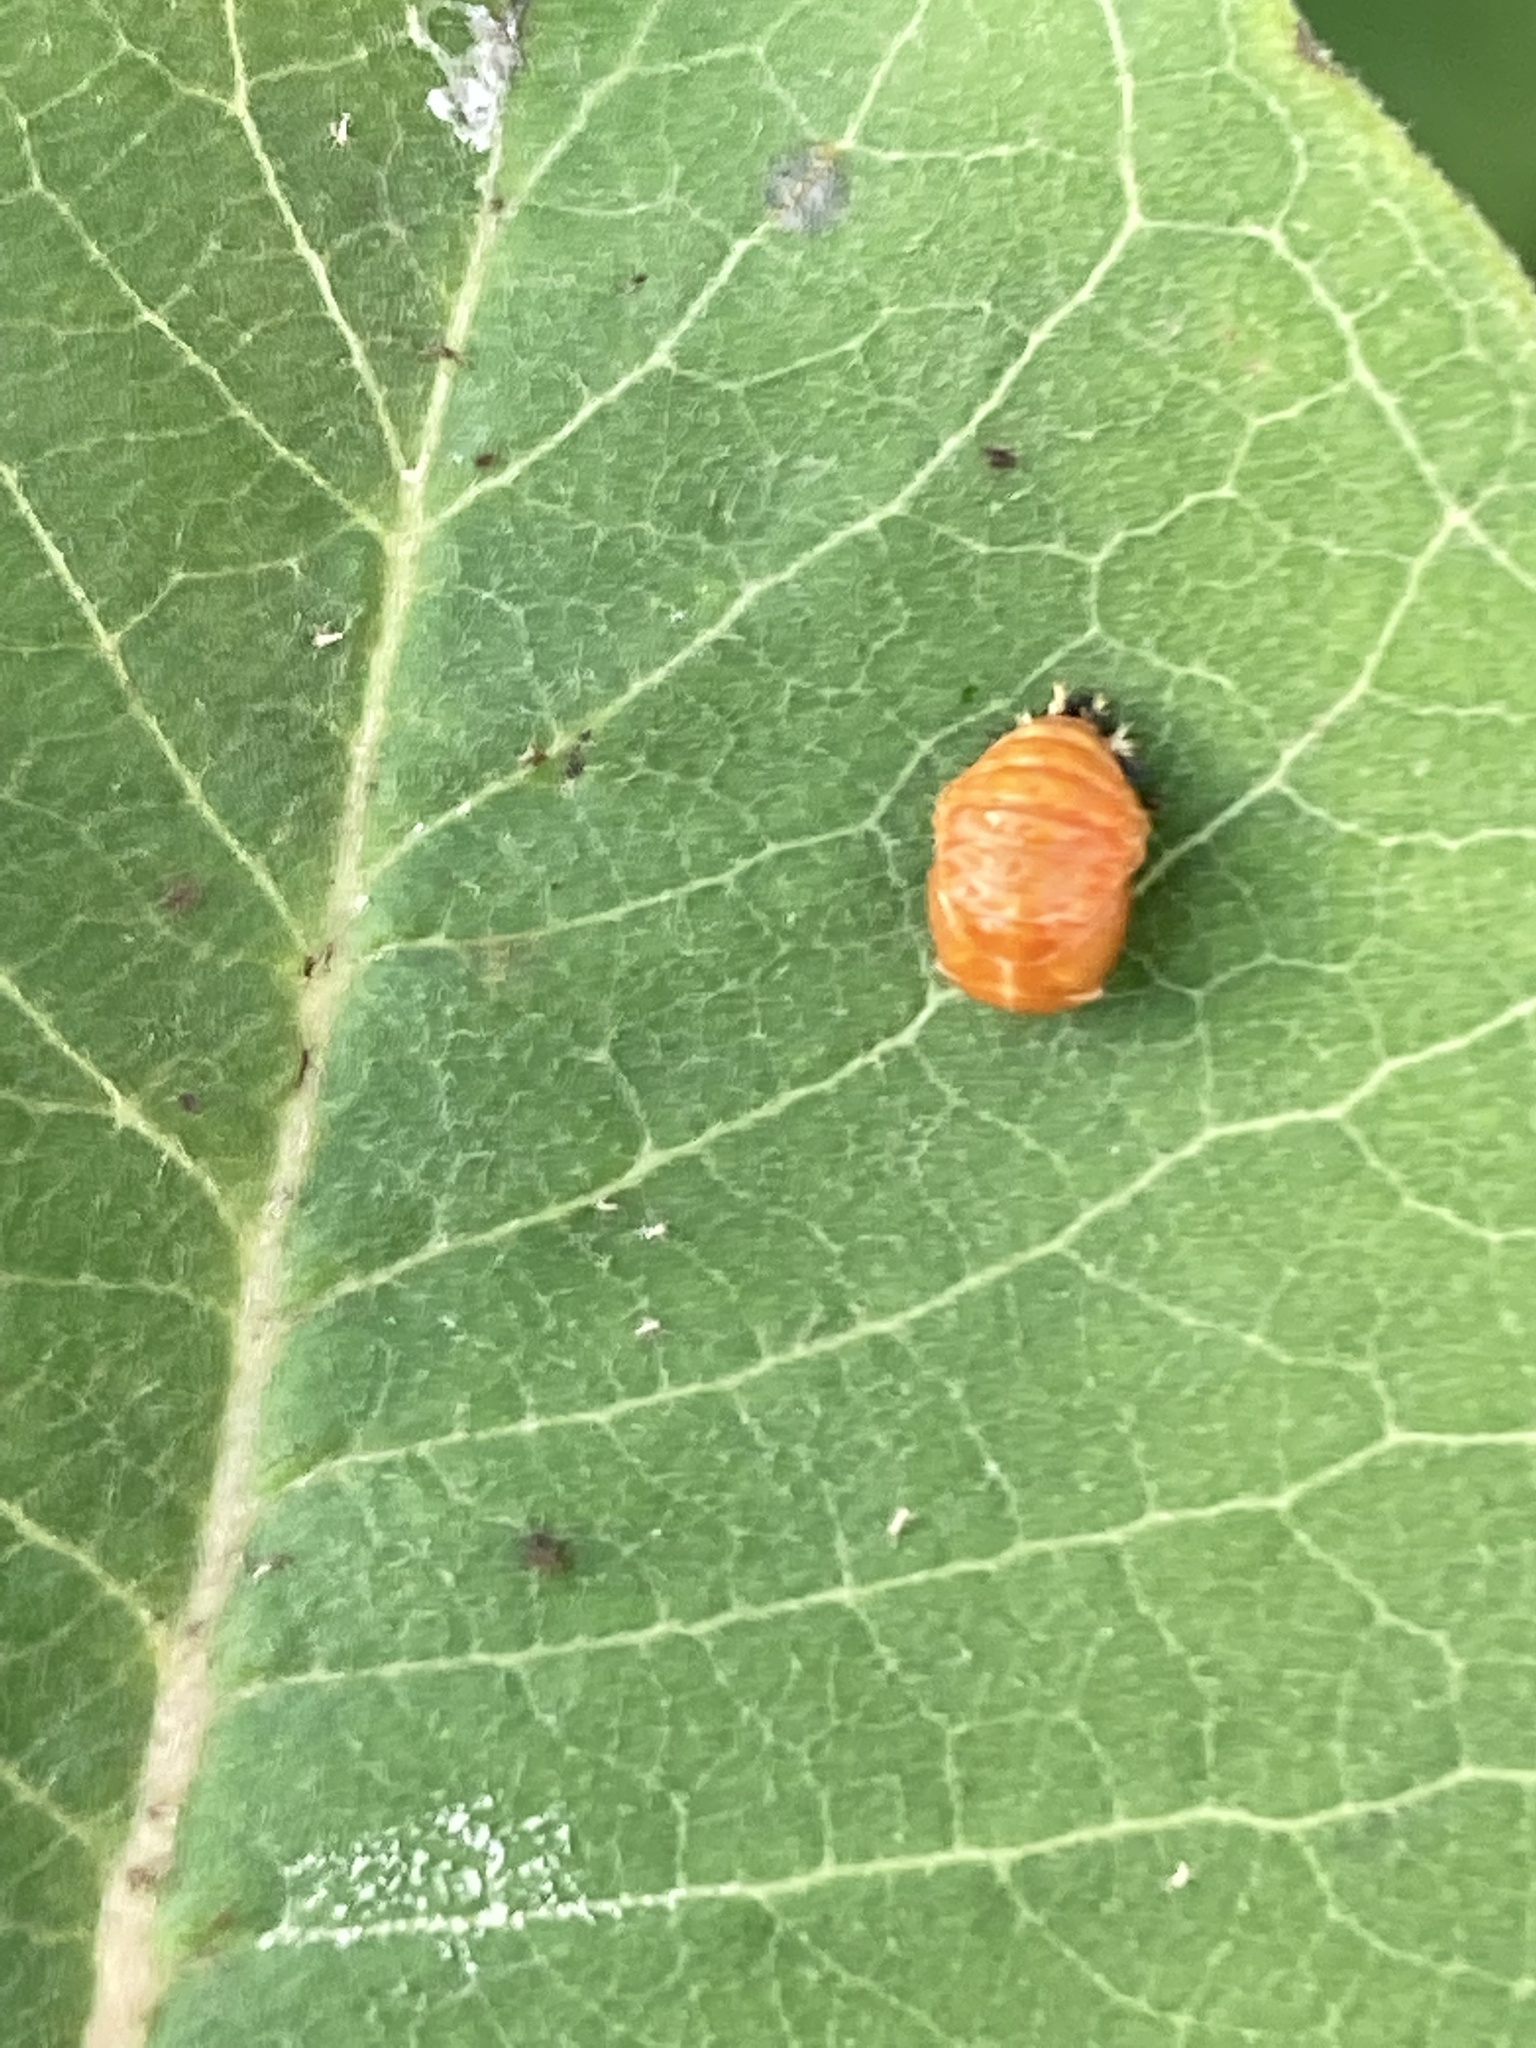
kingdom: Animalia
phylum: Arthropoda
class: Insecta
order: Coleoptera
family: Coccinellidae
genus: Harmonia
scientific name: Harmonia axyridis
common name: Harlequin ladybird
